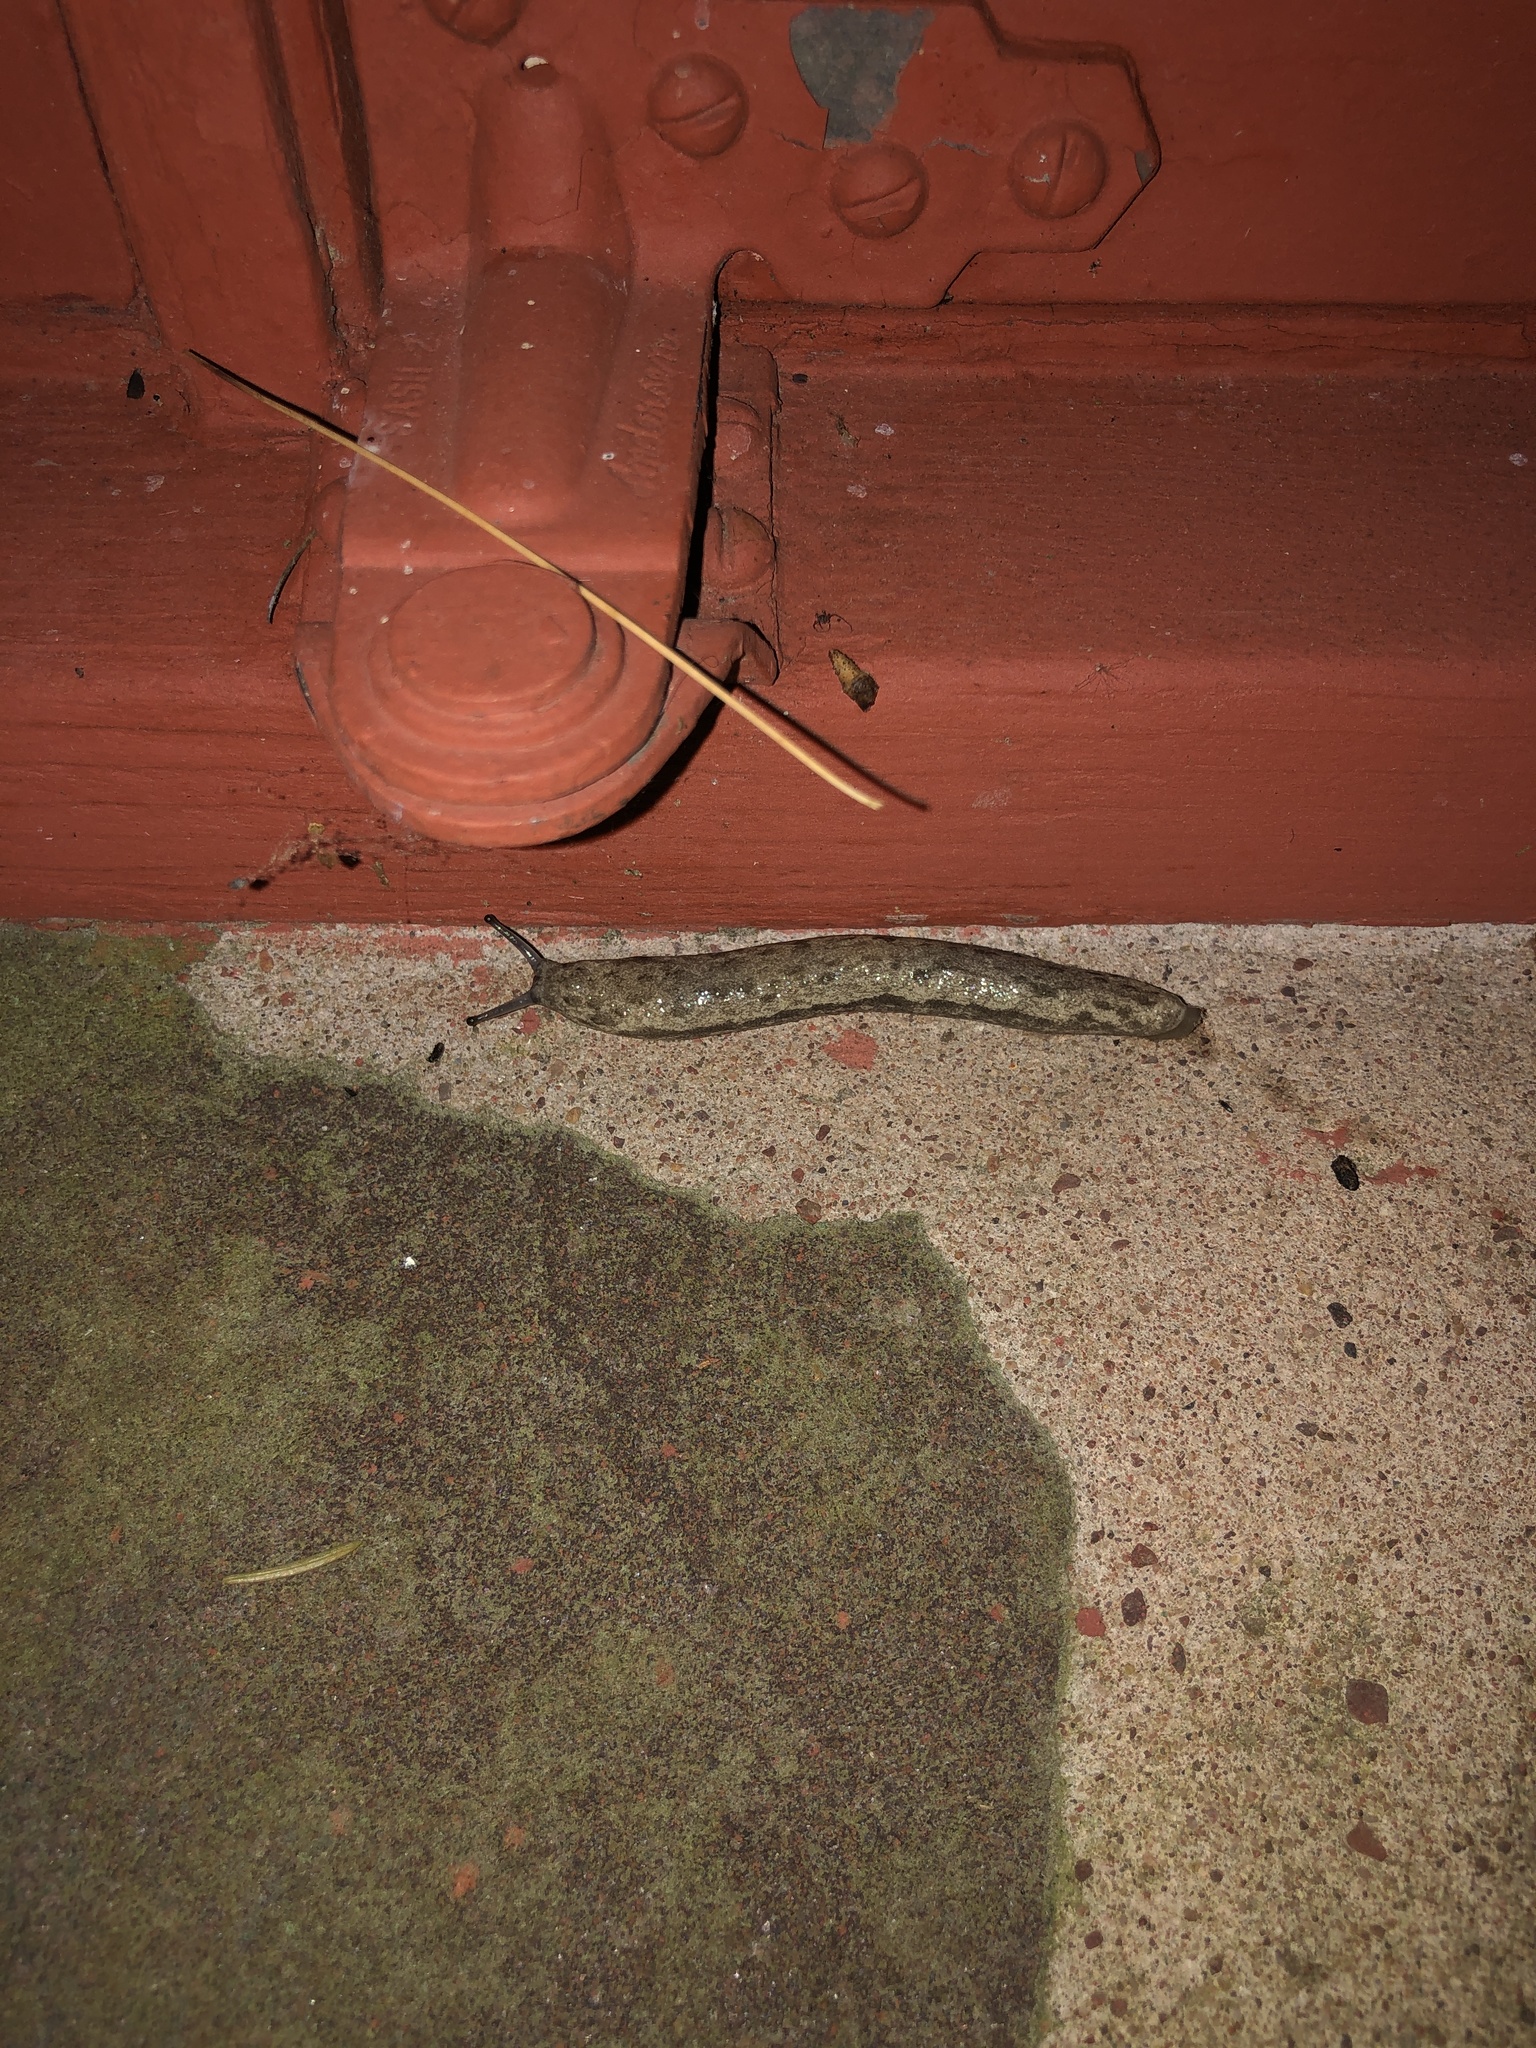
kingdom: Animalia
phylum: Mollusca
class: Gastropoda
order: Stylommatophora
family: Philomycidae
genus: Megapallifera
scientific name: Megapallifera mutabilis
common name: Changeable mantleslug
